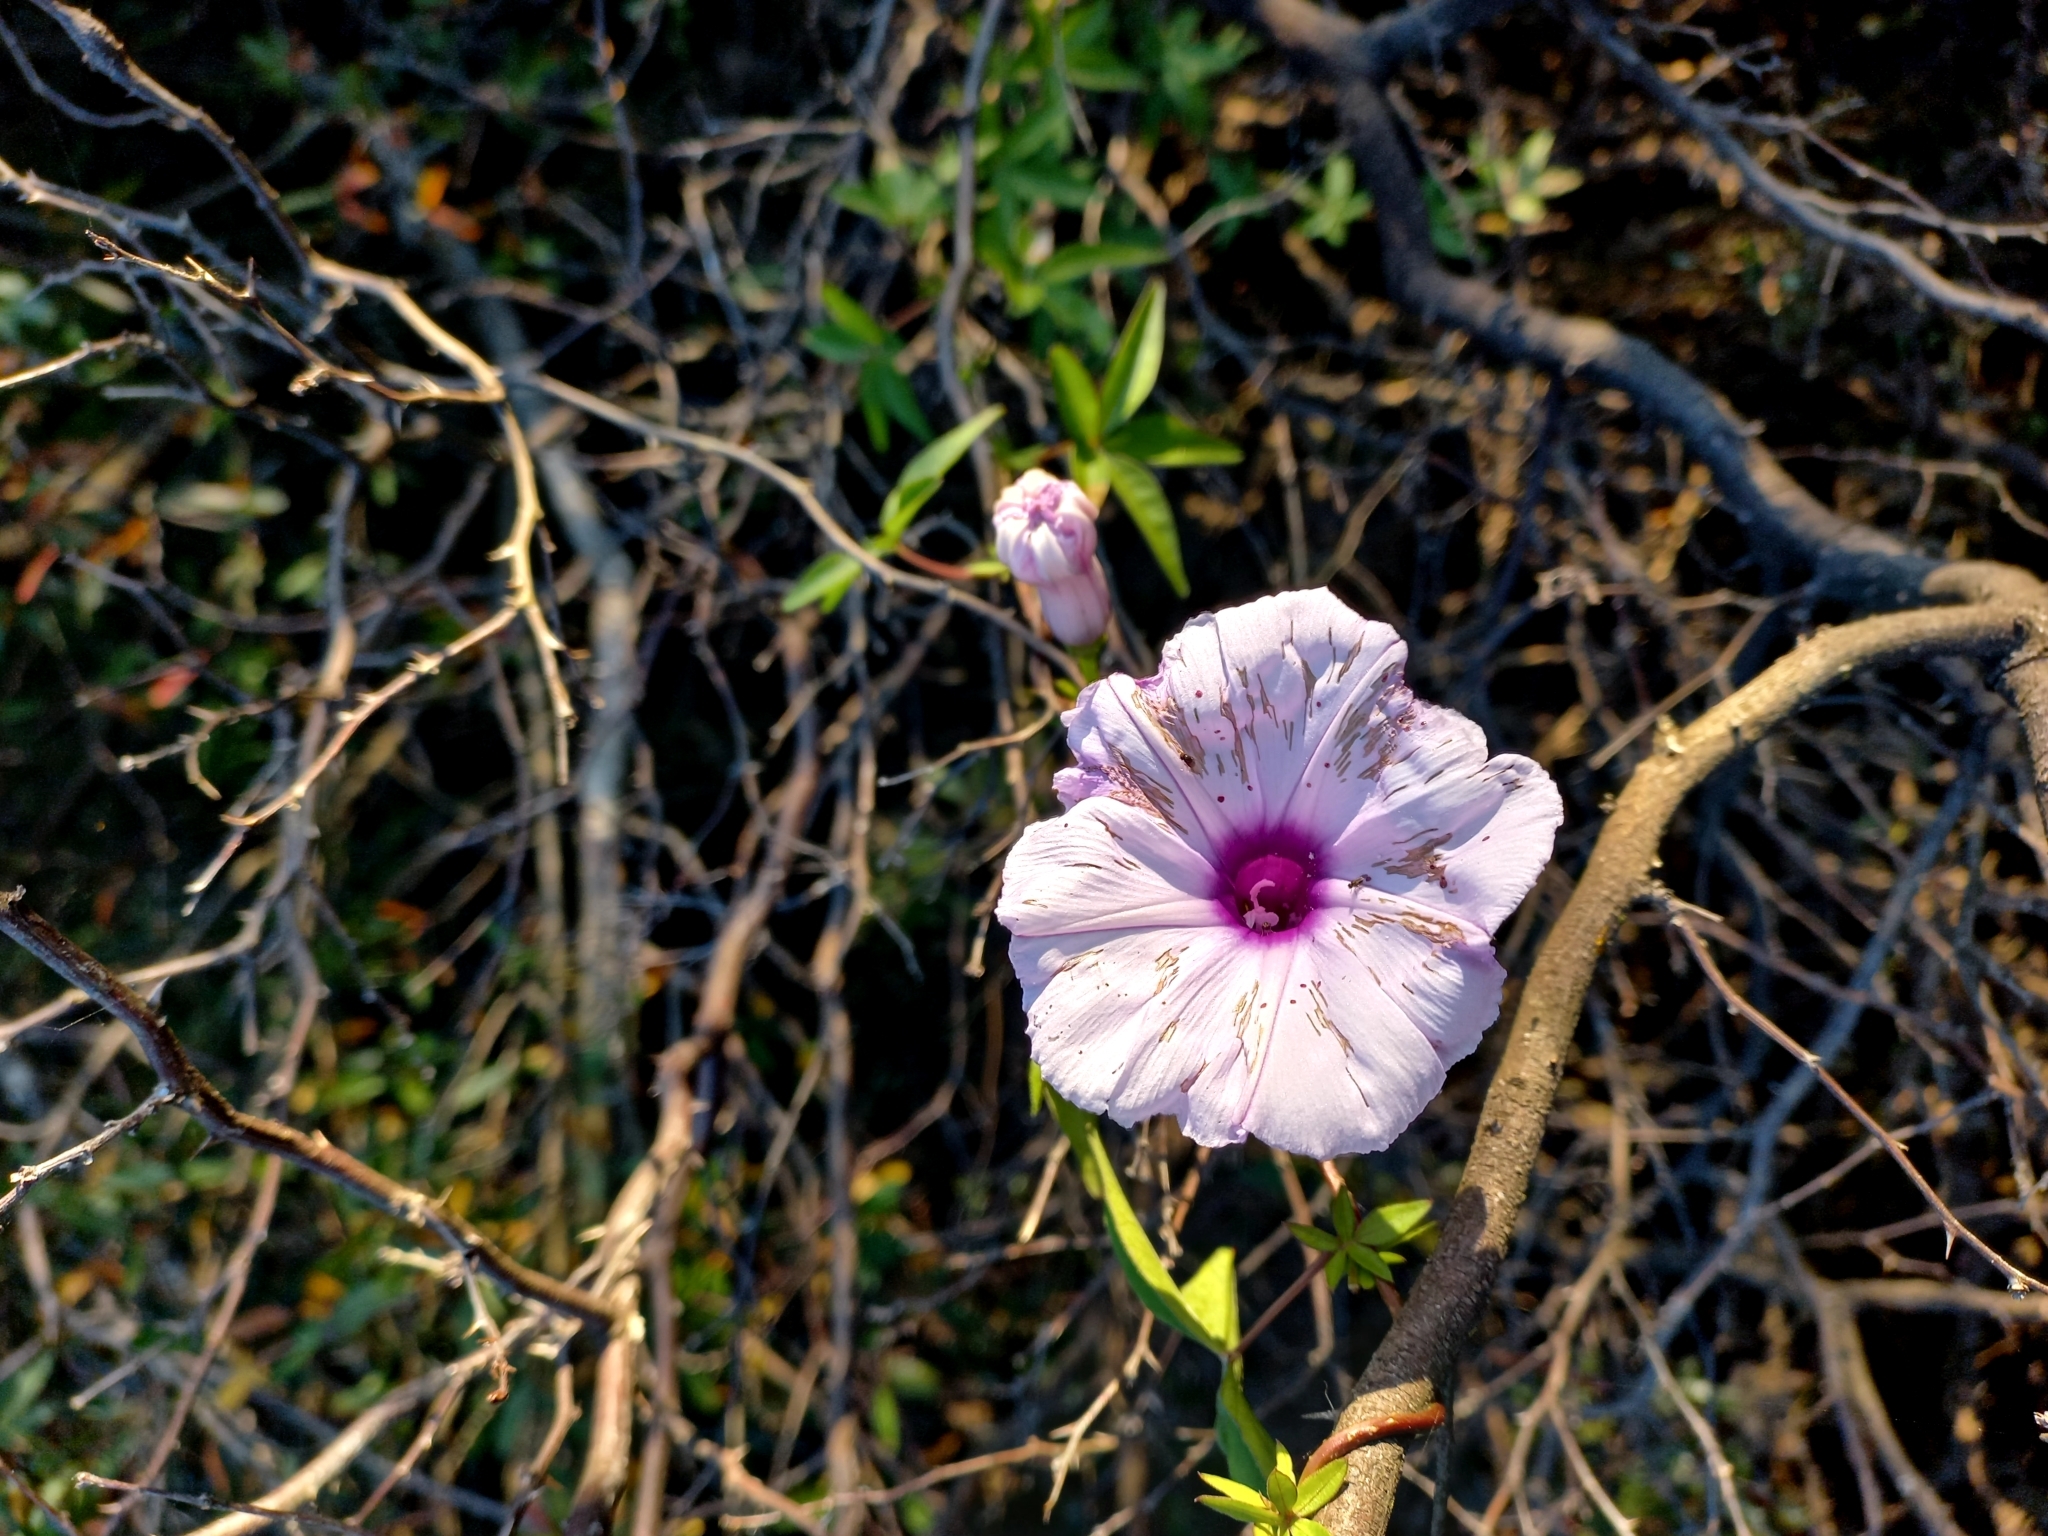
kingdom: Plantae
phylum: Tracheophyta
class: Magnoliopsida
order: Solanales
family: Convolvulaceae
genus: Ipomoea
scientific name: Ipomoea cairica
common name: Mile a minute vine
